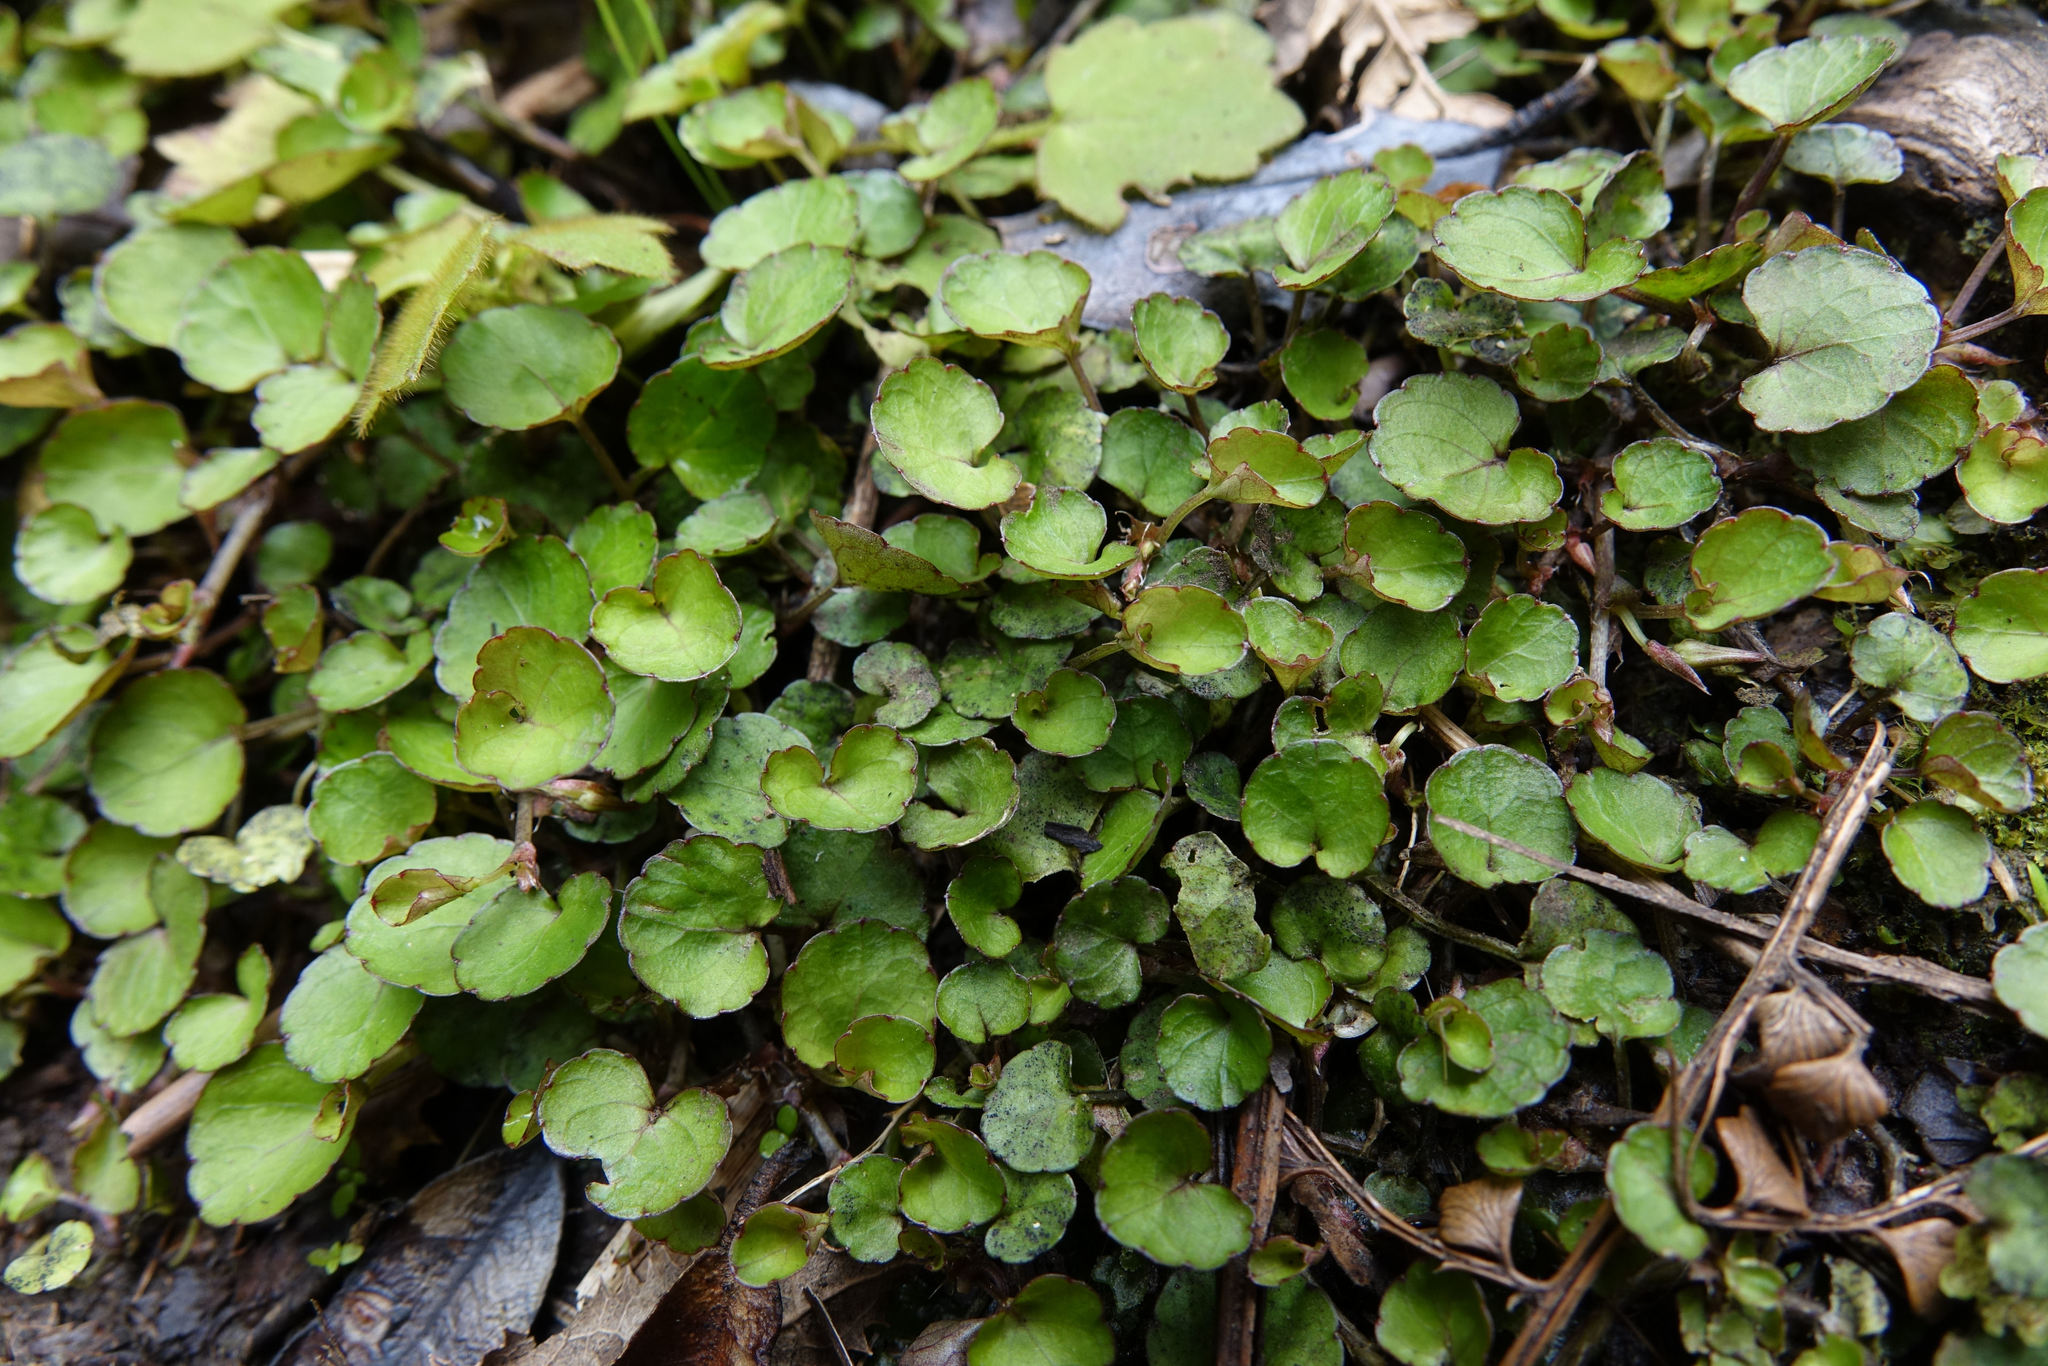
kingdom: Plantae
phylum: Tracheophyta
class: Magnoliopsida
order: Malpighiales
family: Violaceae
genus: Viola
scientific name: Viola filicaulis
